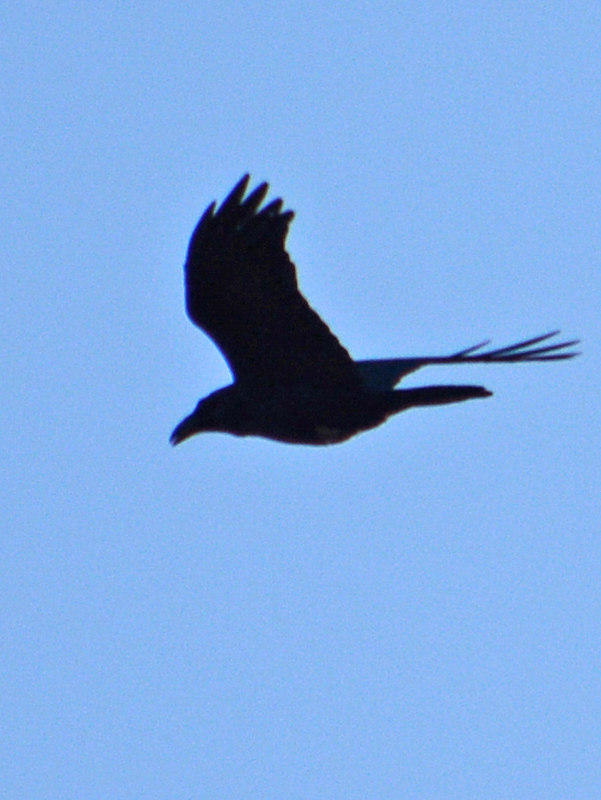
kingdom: Animalia
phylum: Chordata
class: Aves
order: Passeriformes
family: Corvidae
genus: Corvus
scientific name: Corvus corax
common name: Common raven
